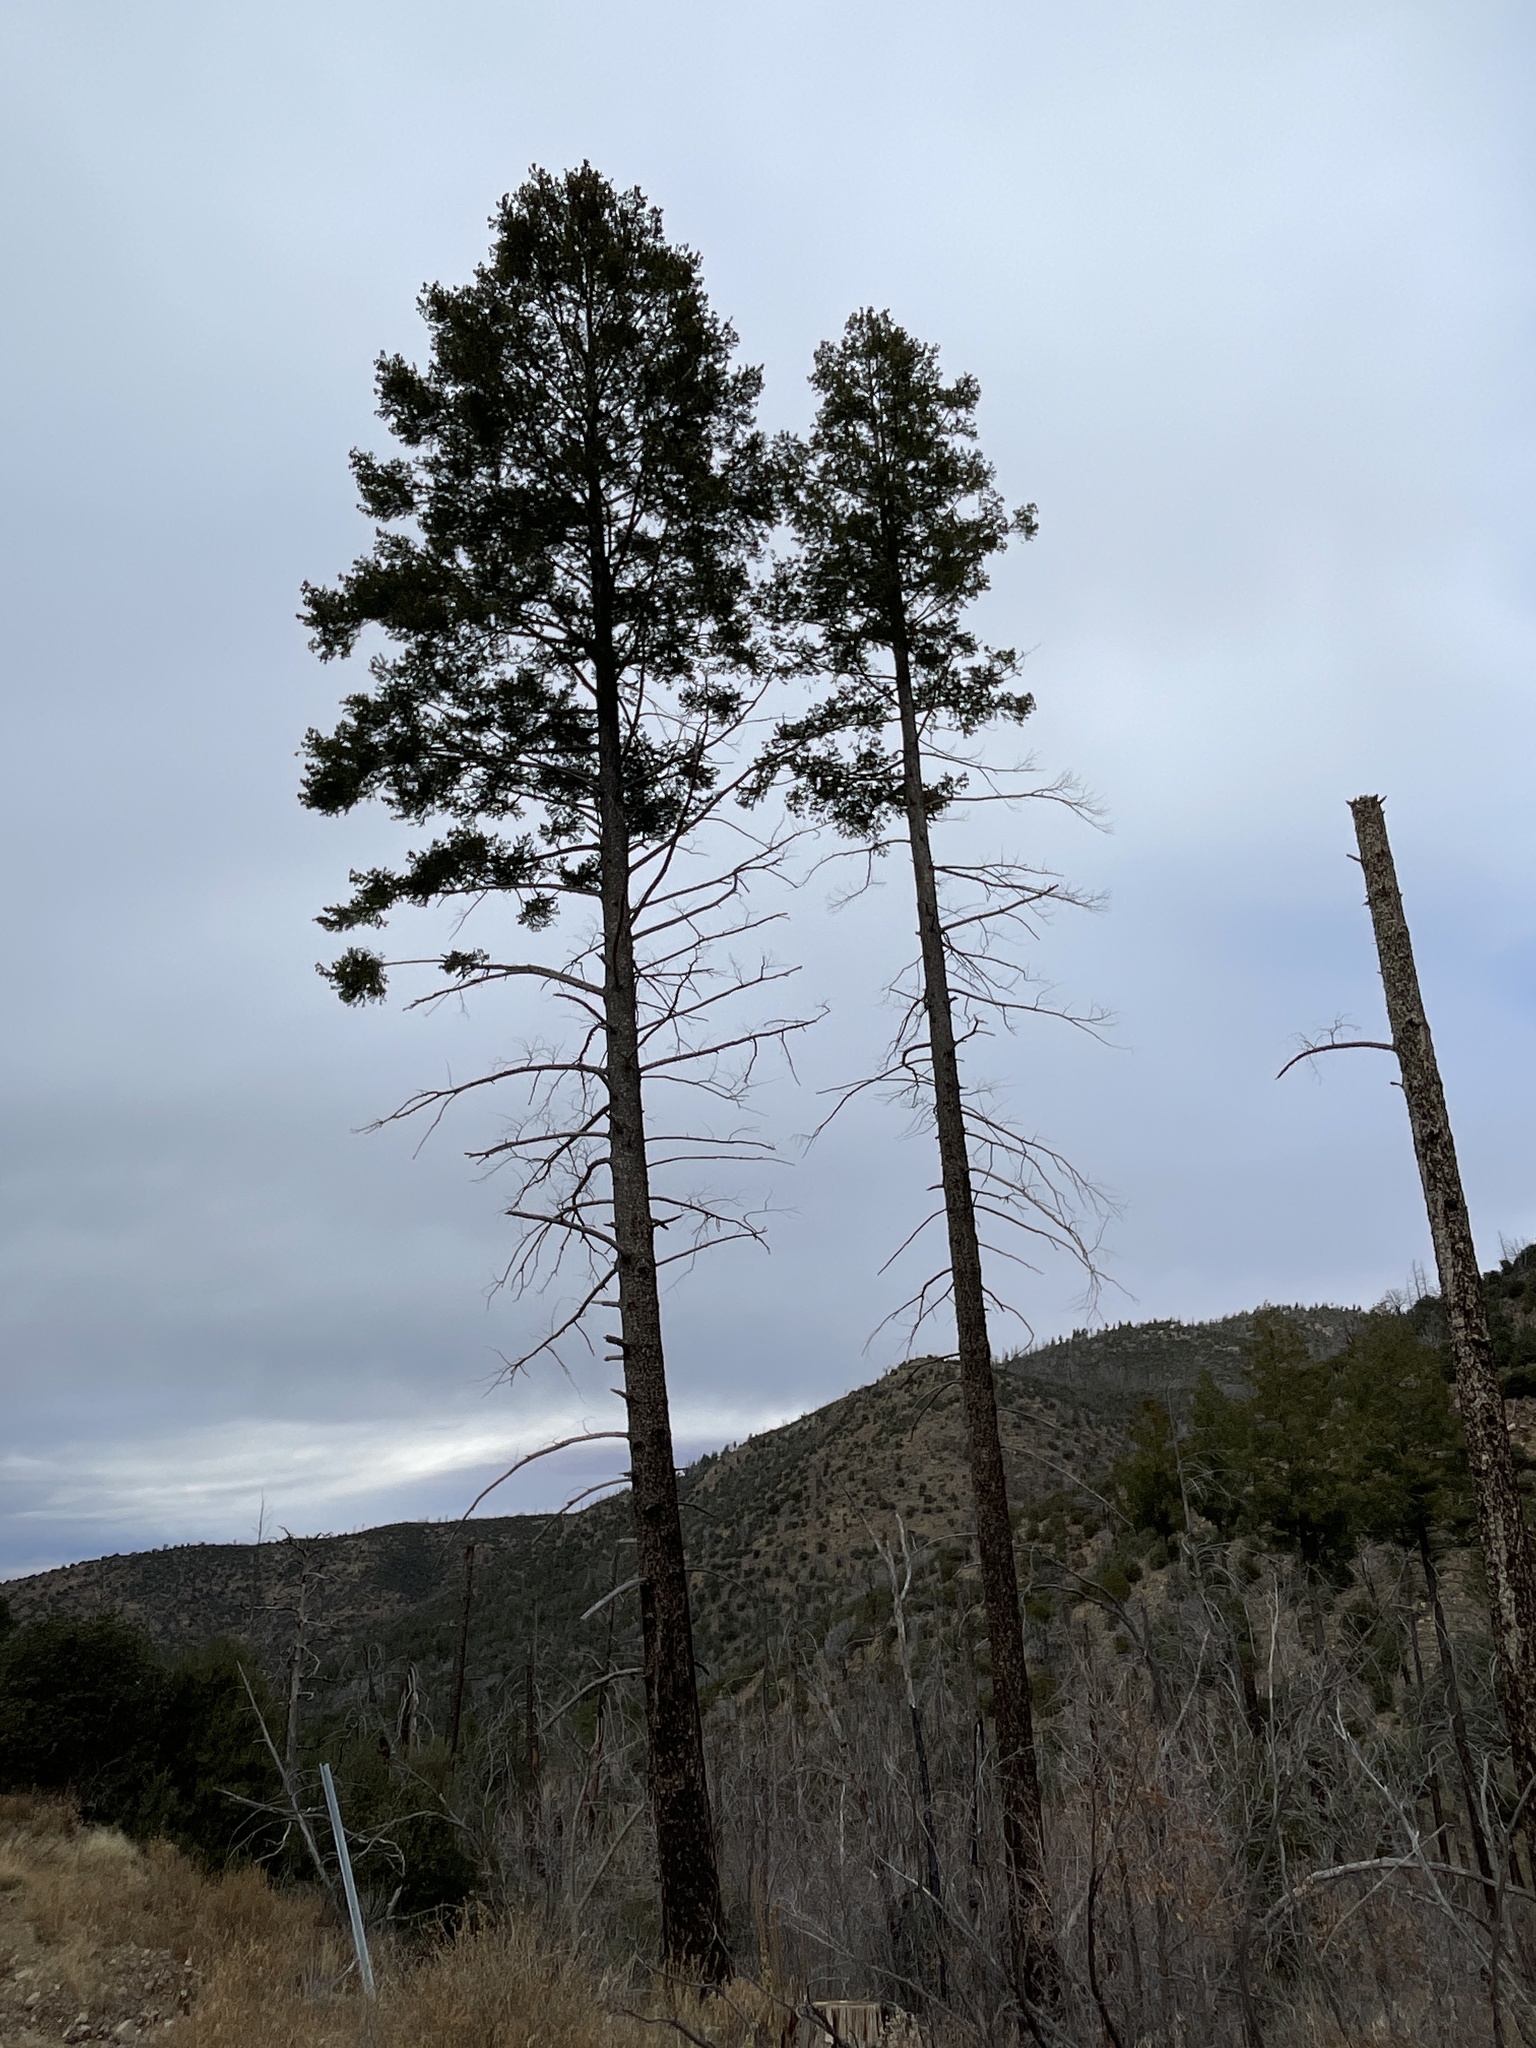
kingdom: Plantae
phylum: Tracheophyta
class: Pinopsida
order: Pinales
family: Pinaceae
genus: Pseudotsuga
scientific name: Pseudotsuga menziesii
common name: Douglas fir
